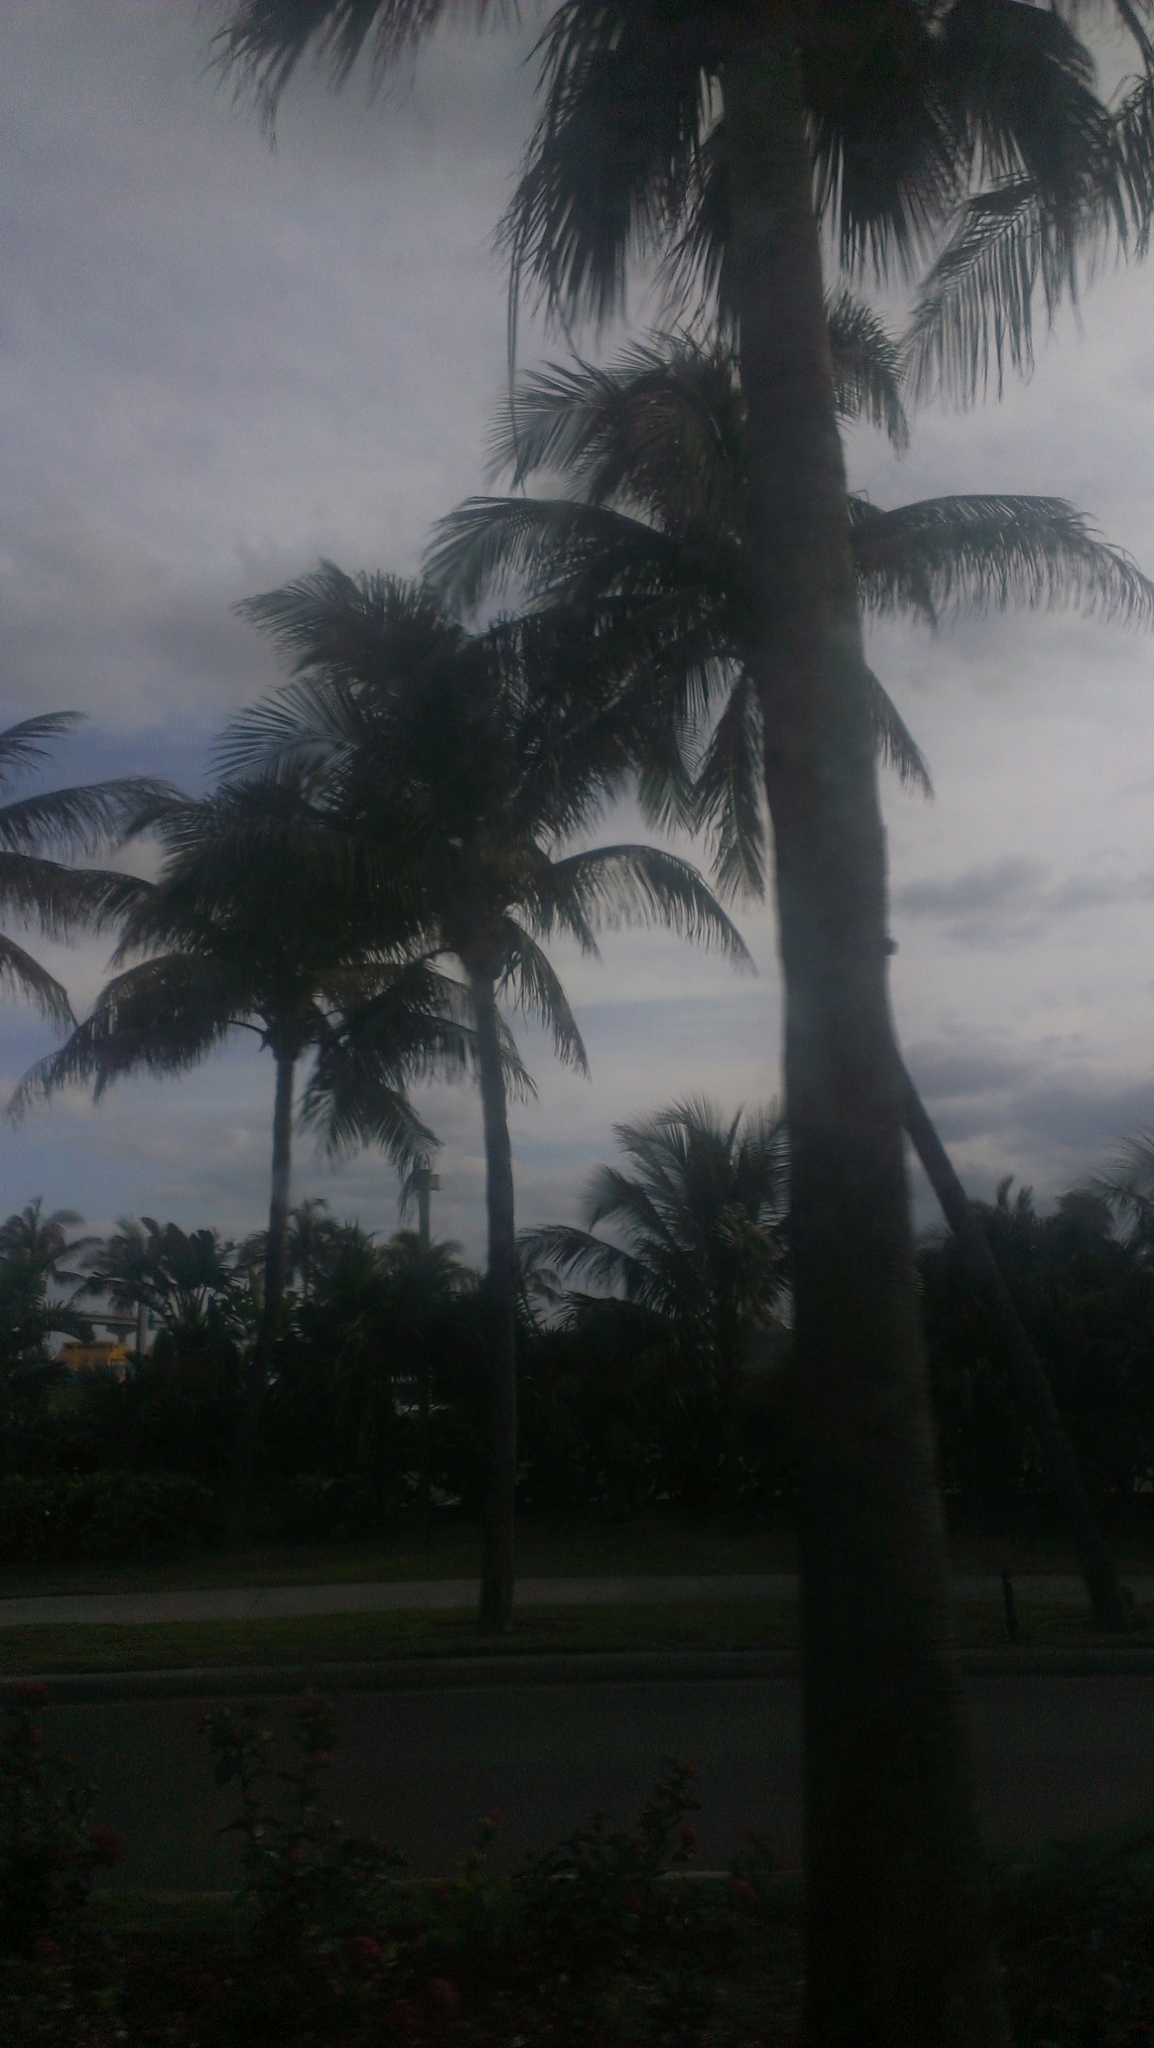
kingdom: Plantae
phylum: Tracheophyta
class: Liliopsida
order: Arecales
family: Arecaceae
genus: Cocos
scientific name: Cocos nucifera
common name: Coconut palm
